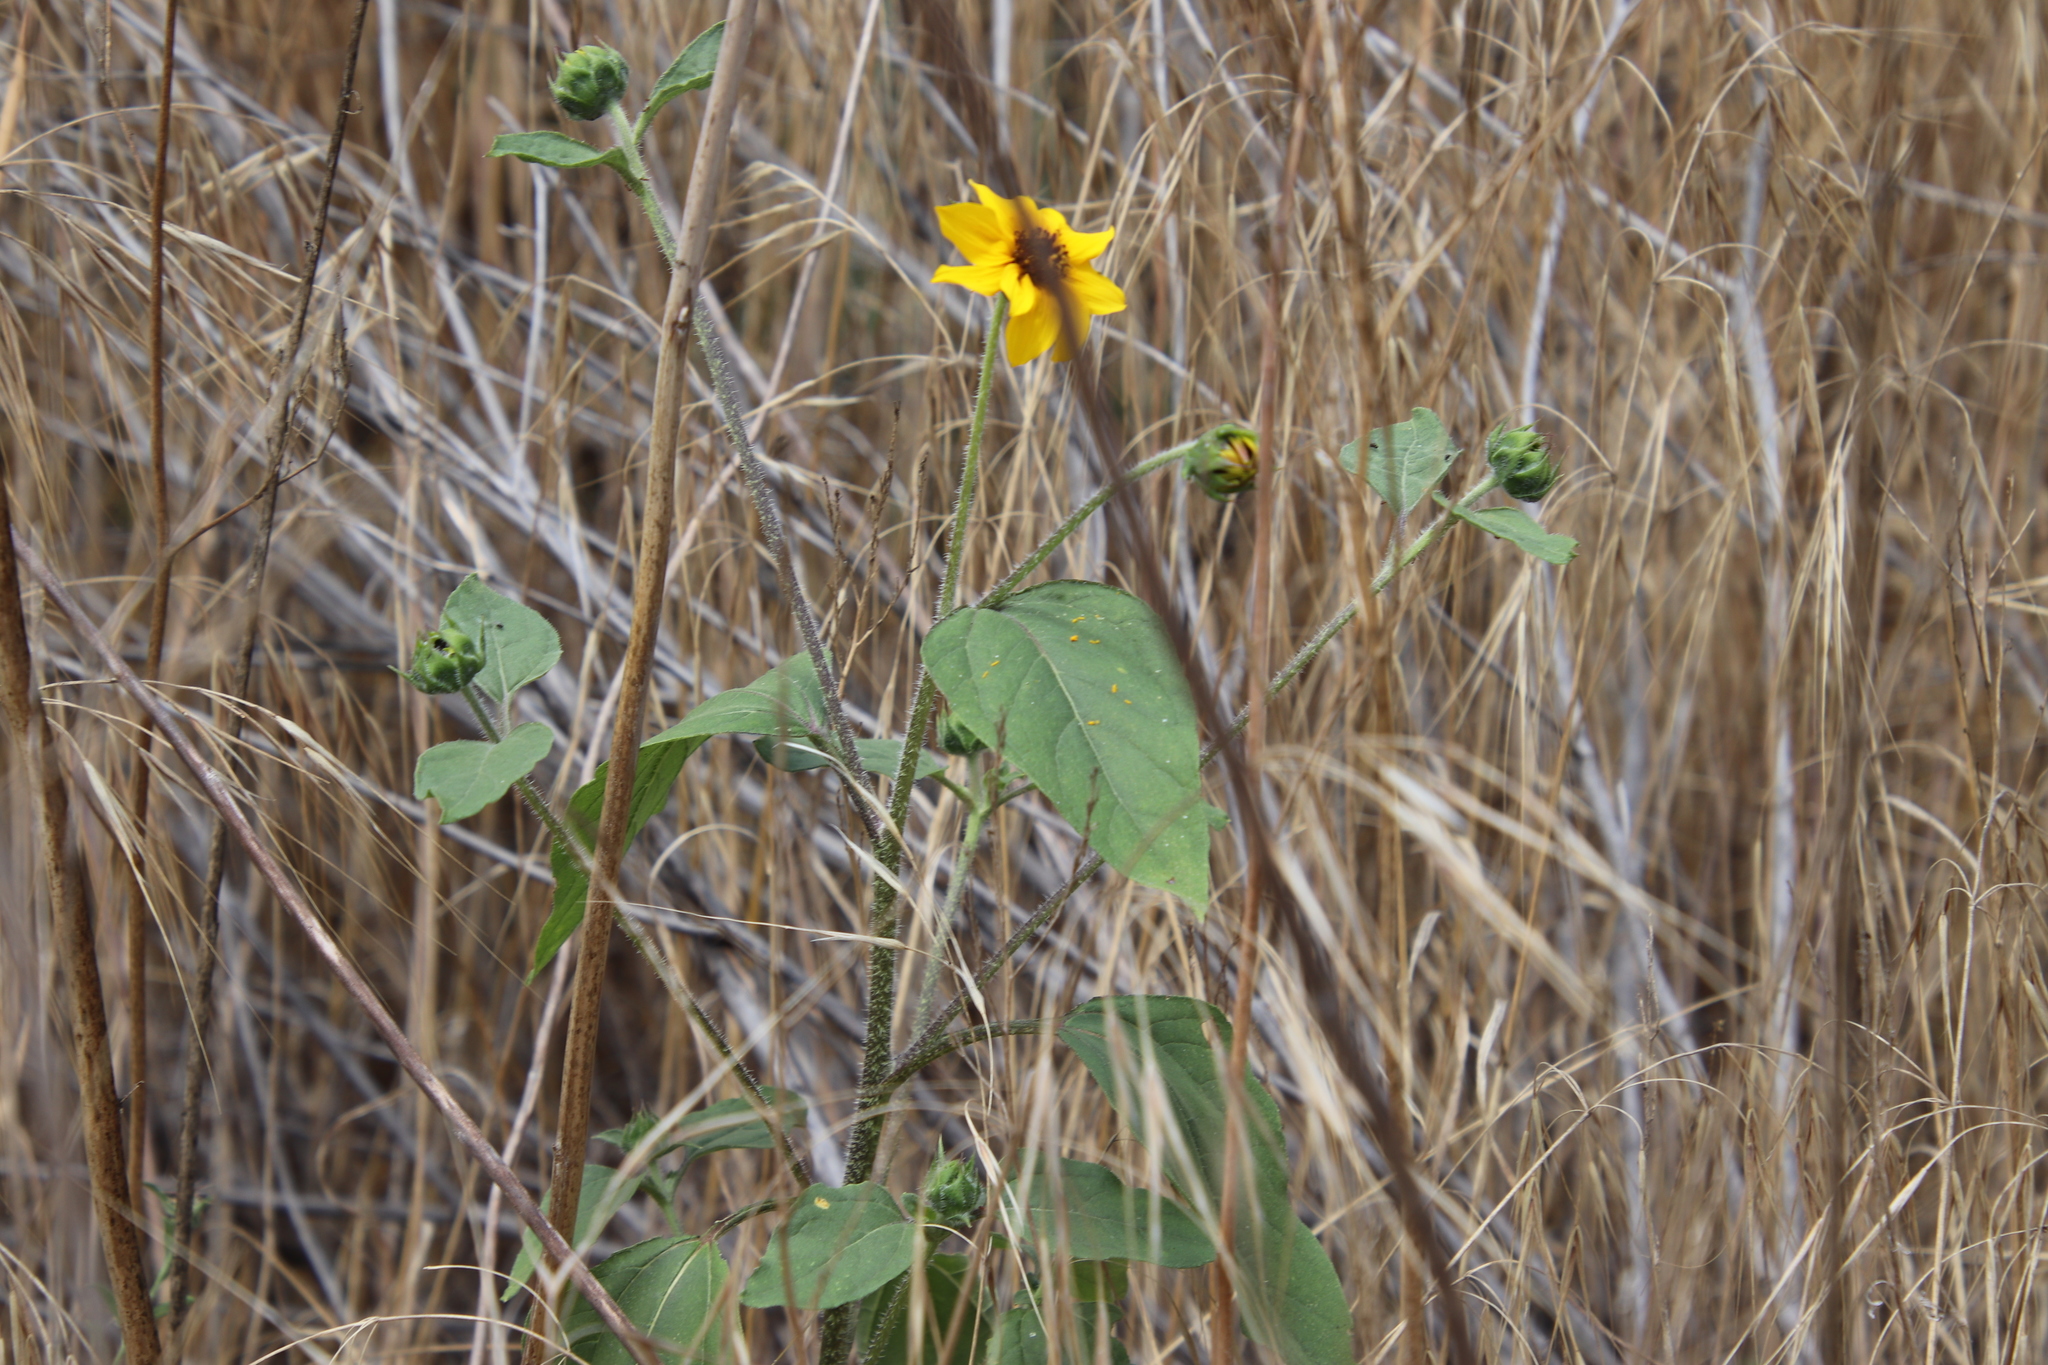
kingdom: Plantae
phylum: Tracheophyta
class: Magnoliopsida
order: Asterales
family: Asteraceae
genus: Helianthus
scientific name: Helianthus annuus
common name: Sunflower
